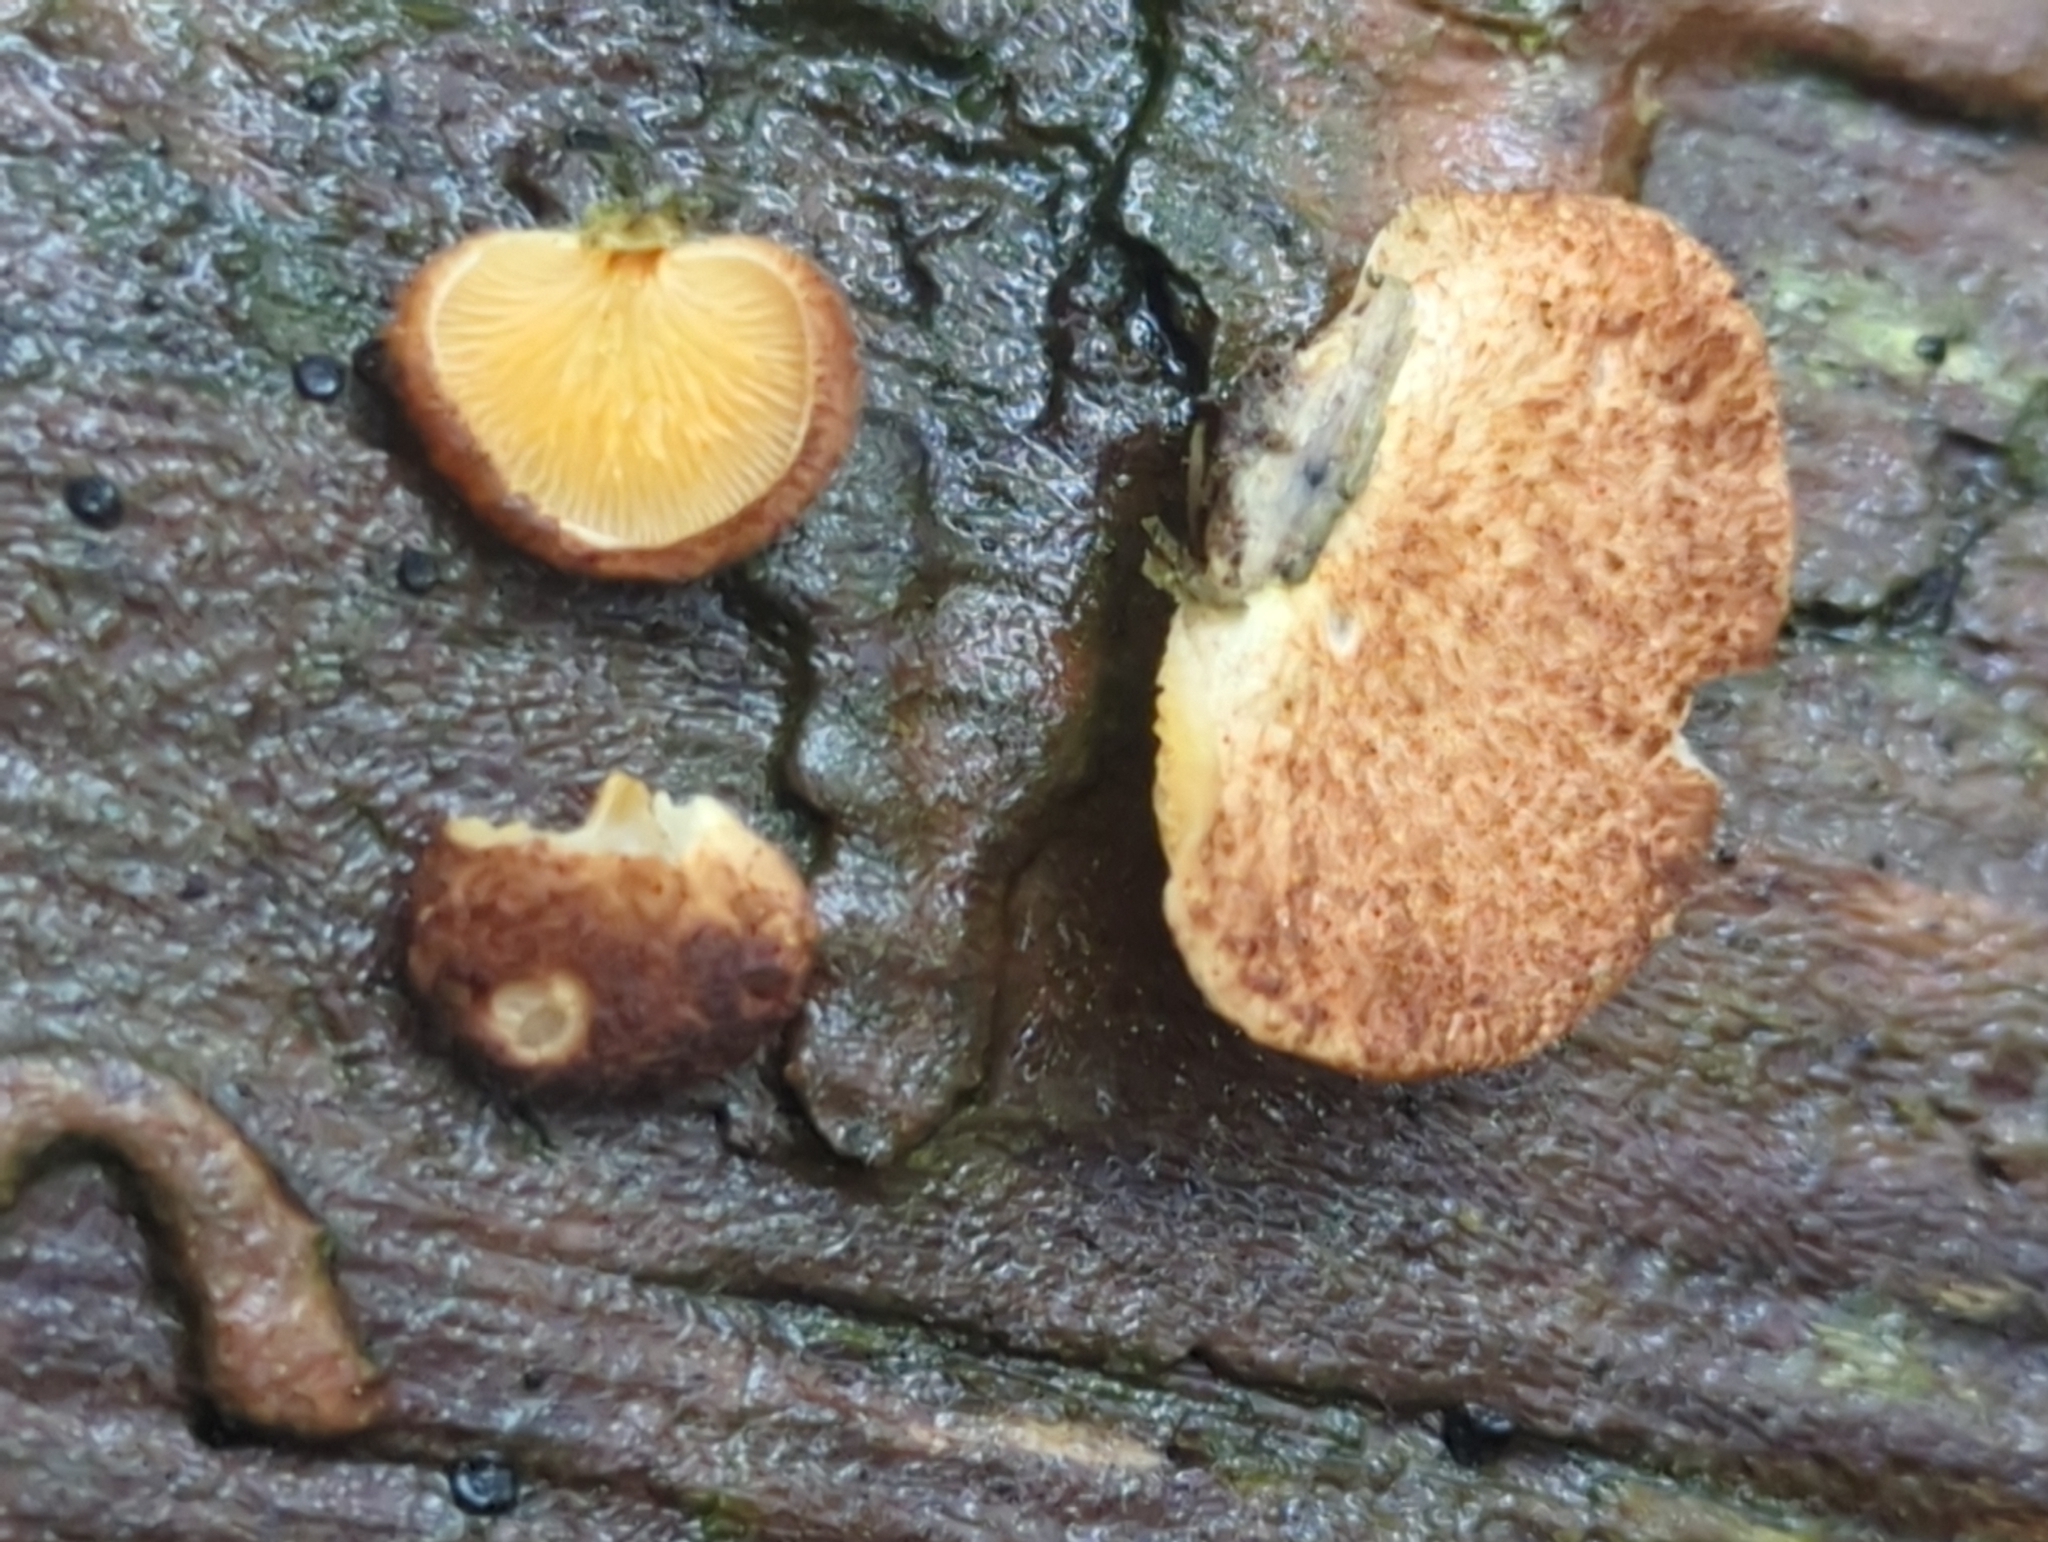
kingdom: Fungi
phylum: Basidiomycota
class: Agaricomycetes
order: Agaricales
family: Crepidotaceae
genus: Crepidotus
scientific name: Crepidotus crocophyllus
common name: Saffron oysterling
